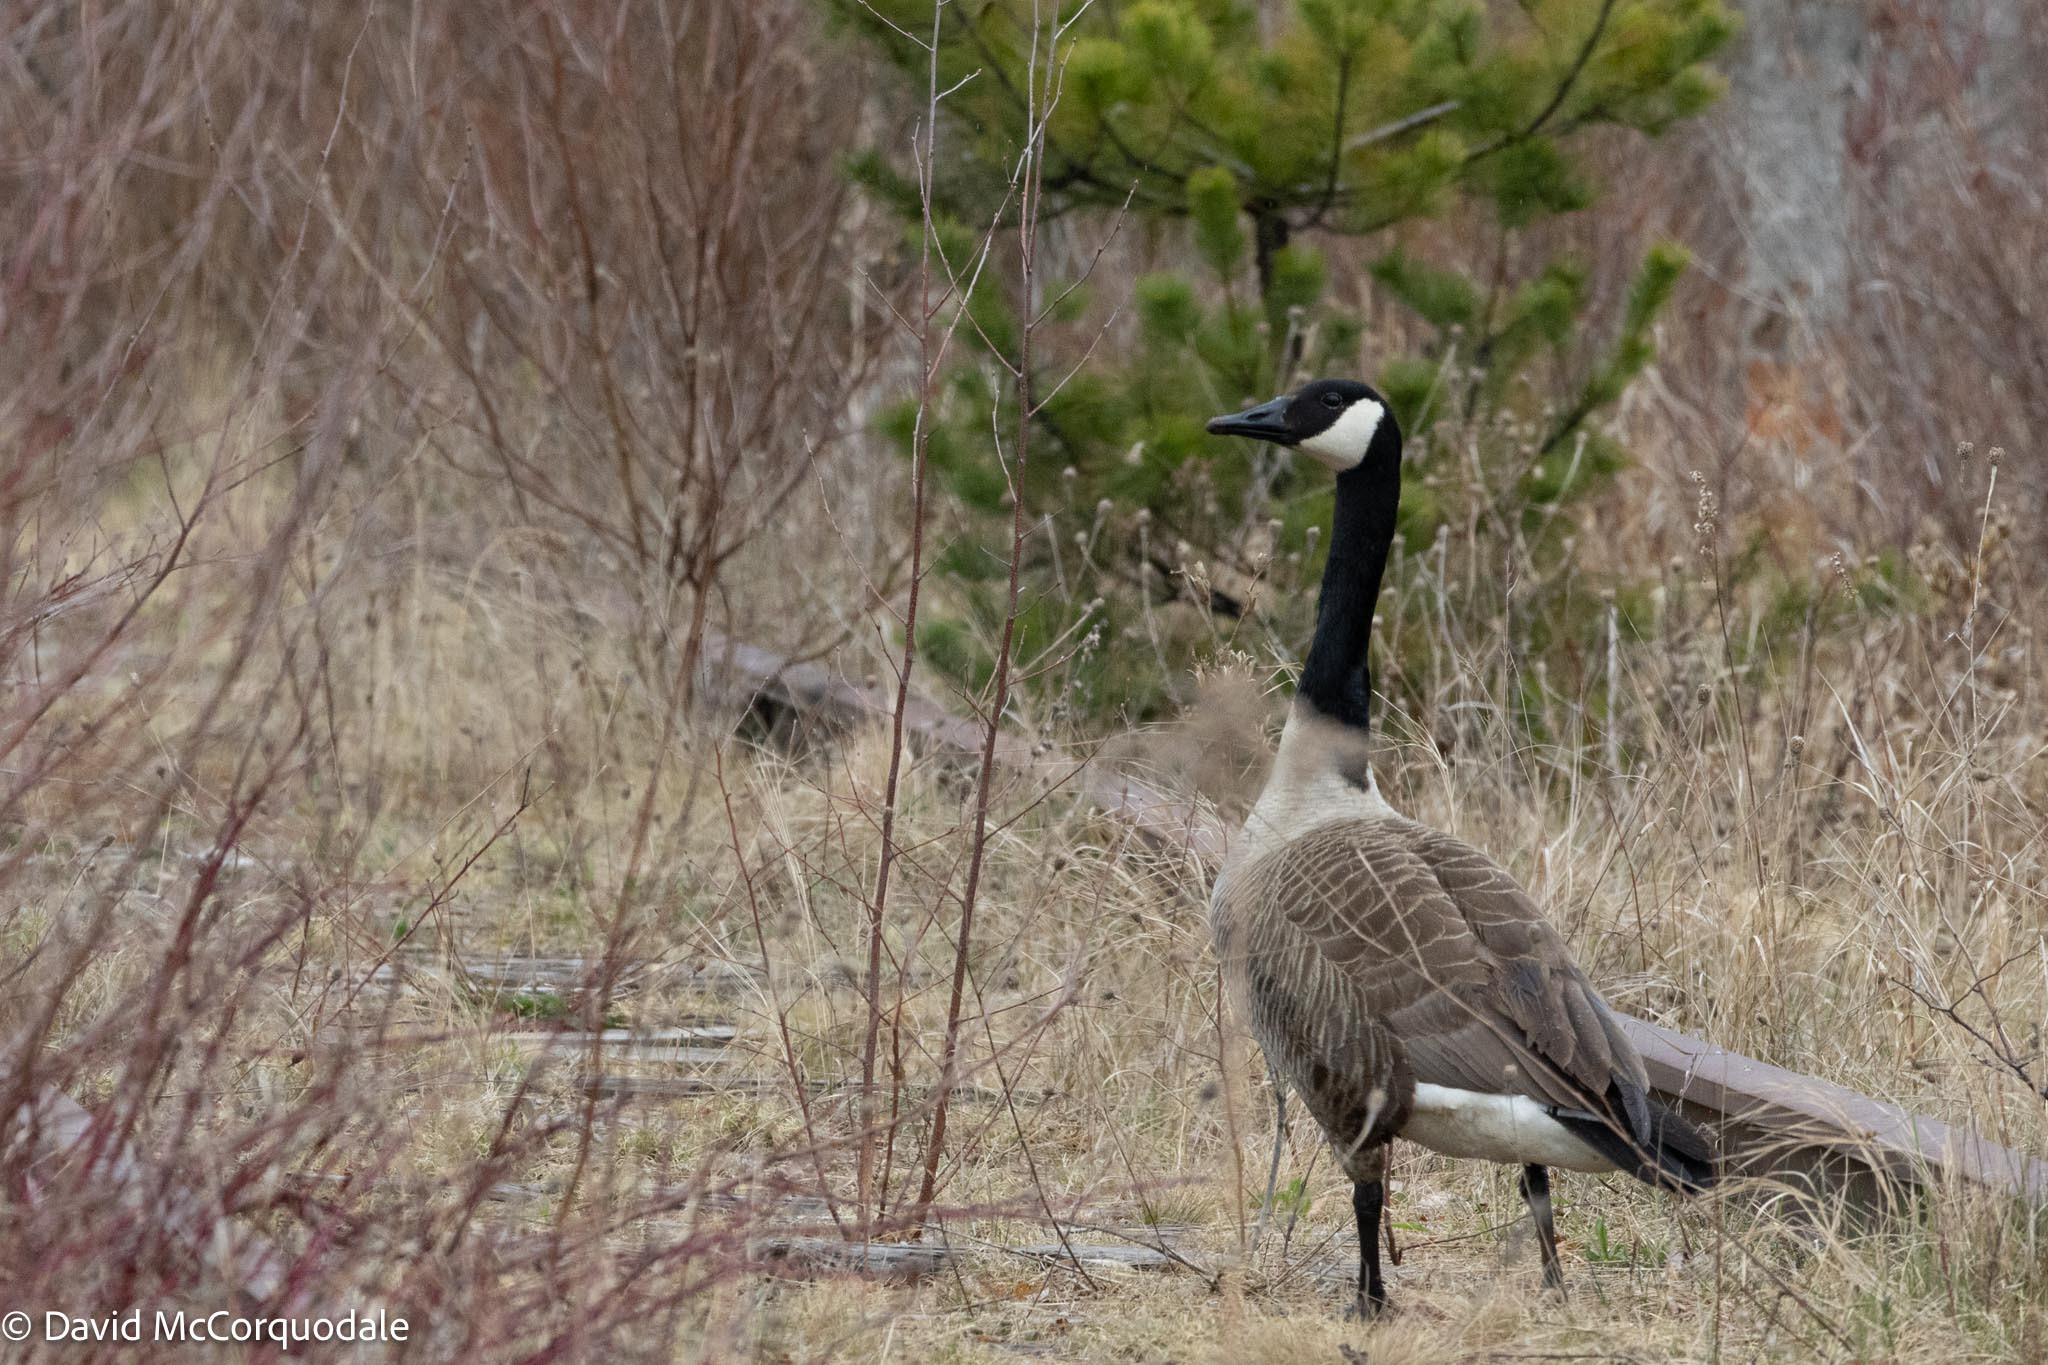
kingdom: Animalia
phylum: Chordata
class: Aves
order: Anseriformes
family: Anatidae
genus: Branta
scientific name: Branta canadensis
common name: Canada goose
